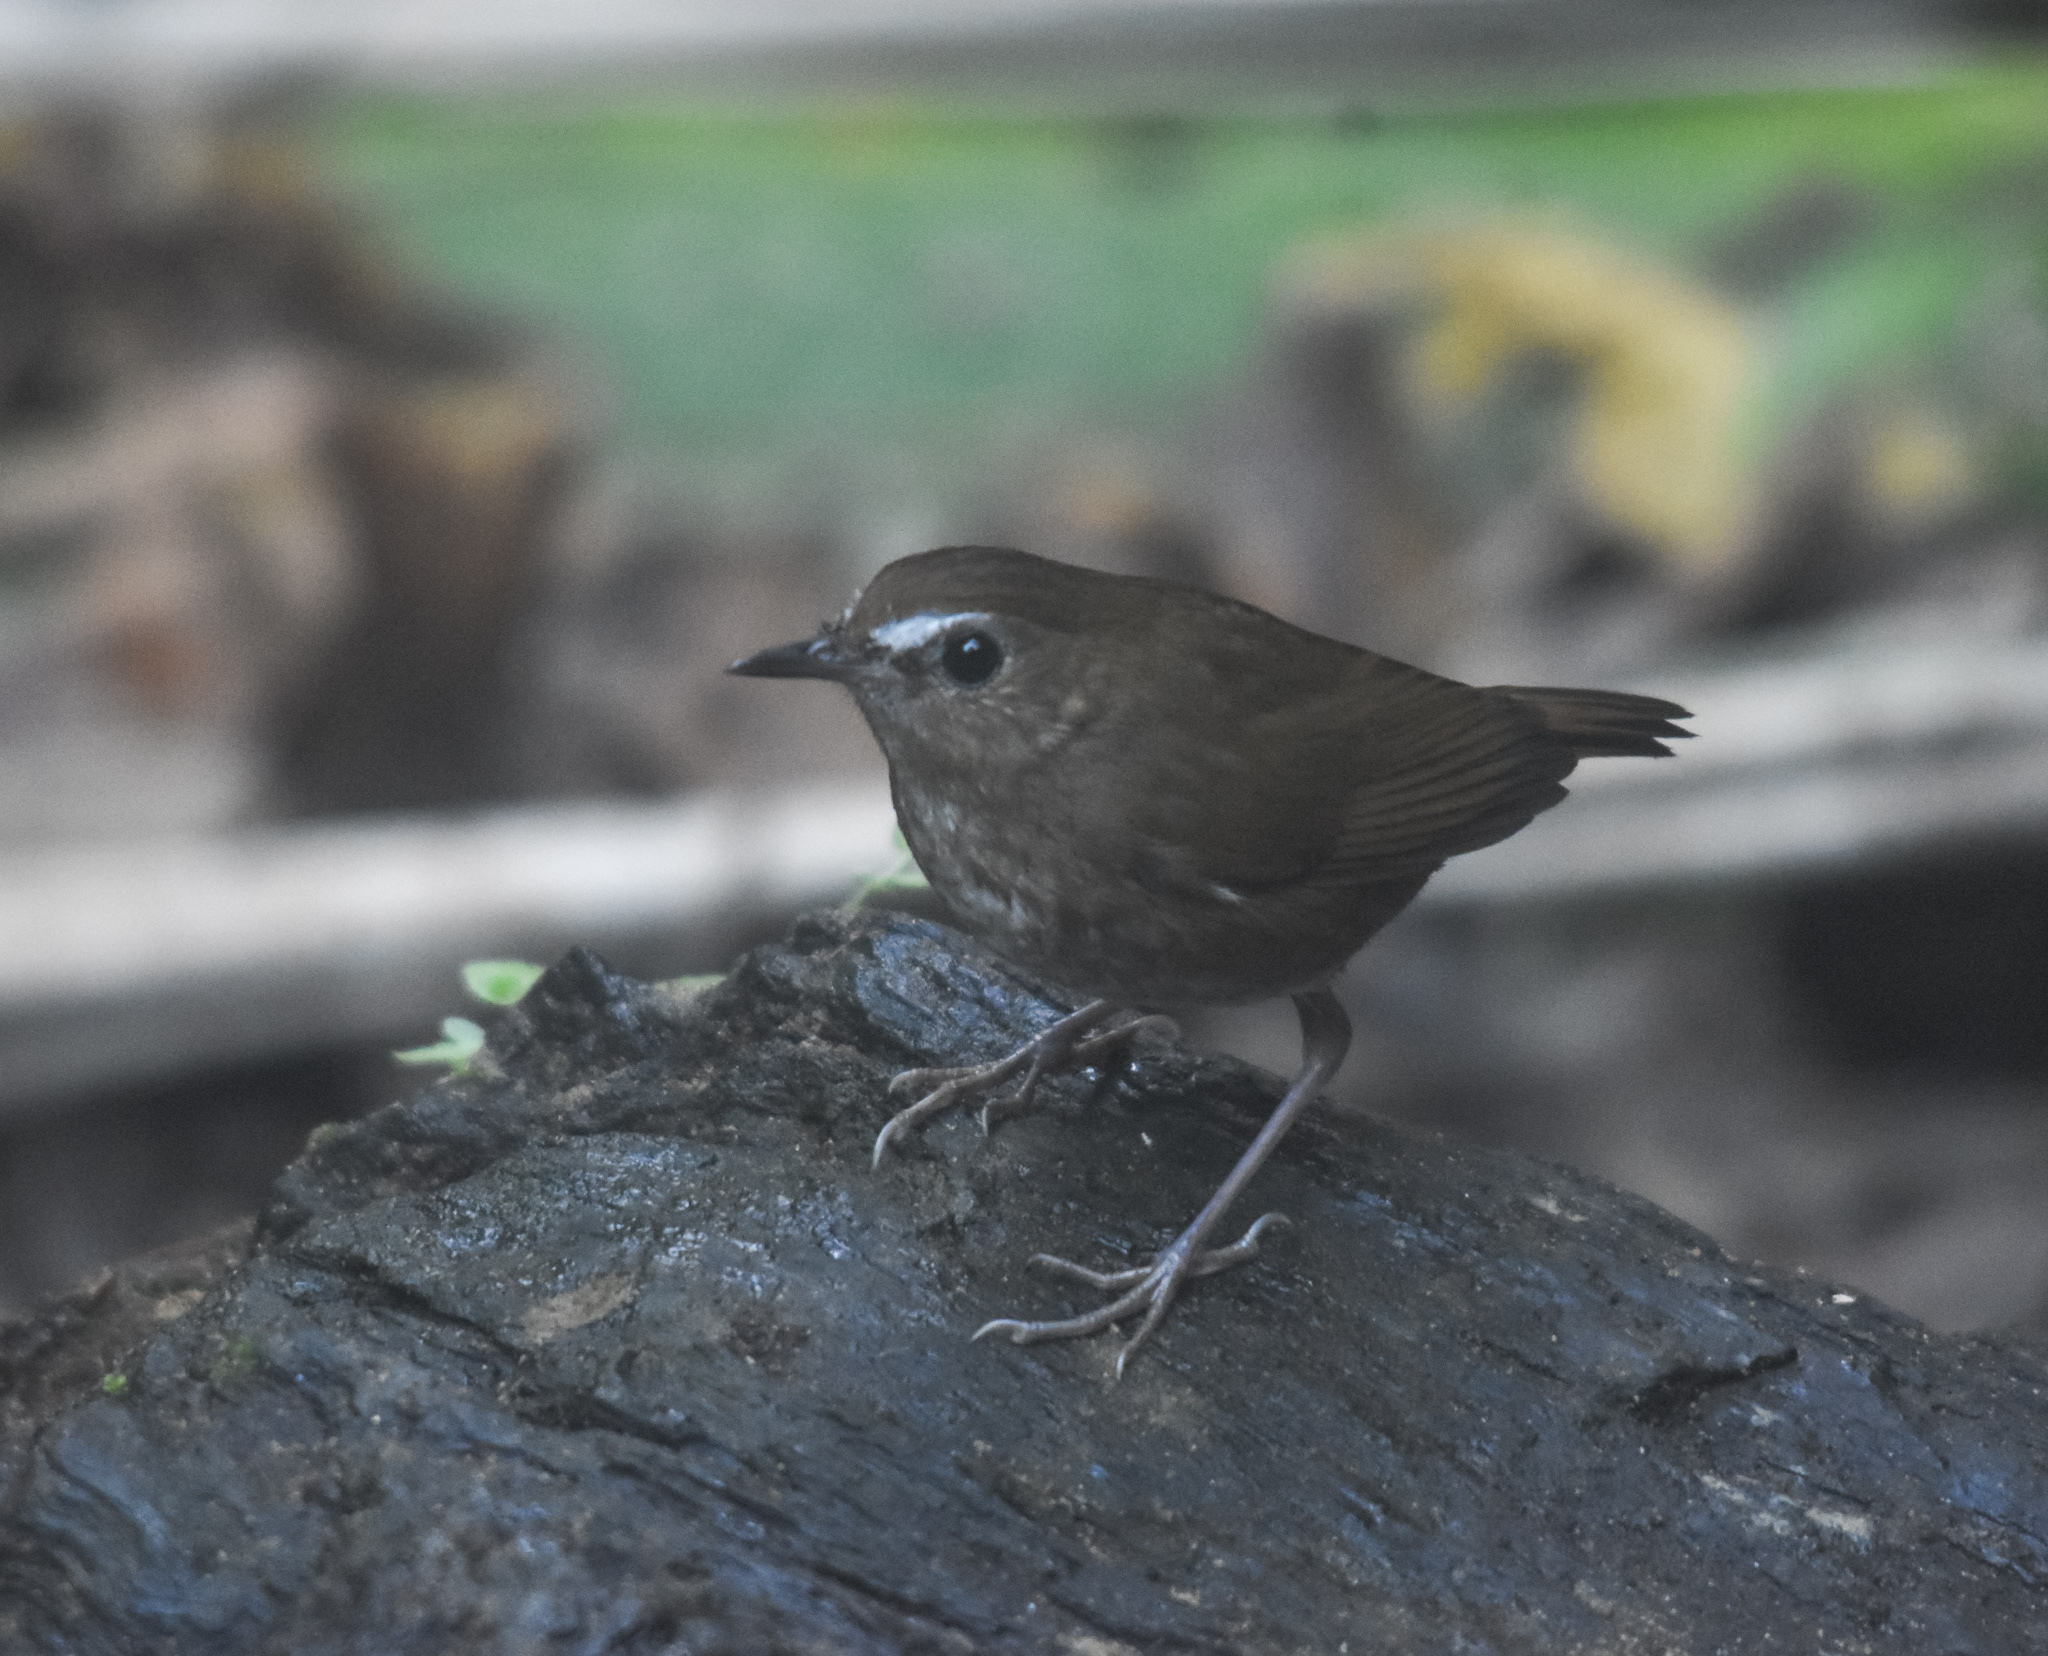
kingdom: Animalia
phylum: Chordata
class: Aves
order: Passeriformes
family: Muscicapidae
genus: Brachypteryx
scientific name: Brachypteryx leucophris
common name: Lesser shortwing
